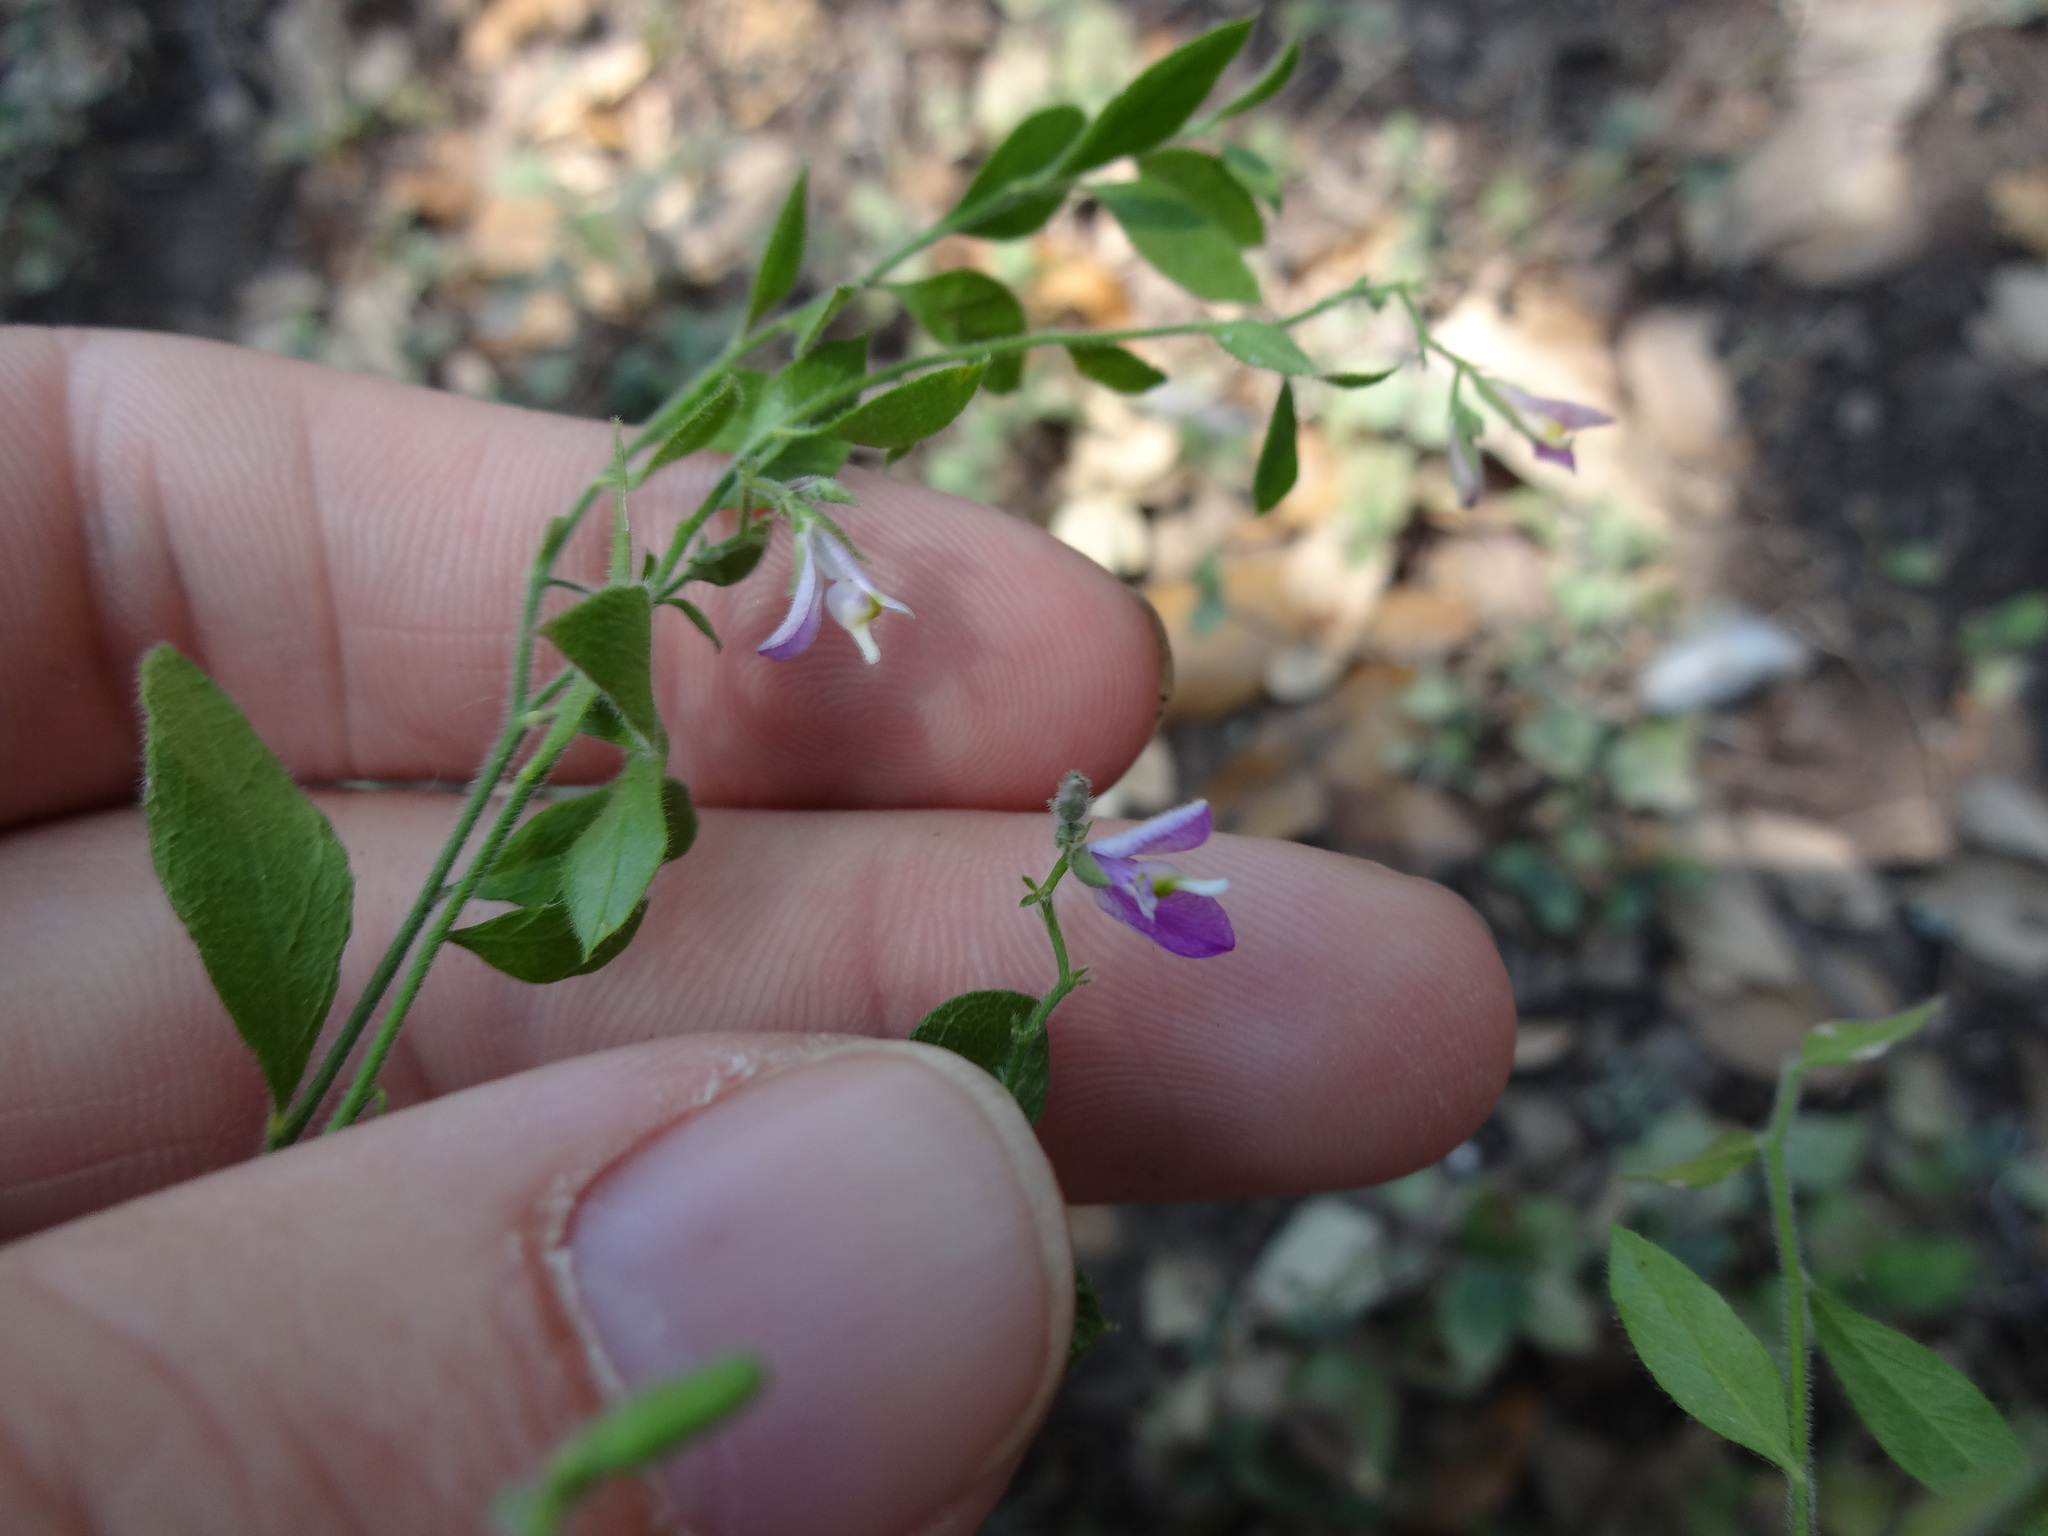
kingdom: Plantae
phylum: Tracheophyta
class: Magnoliopsida
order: Fabales
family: Polygalaceae
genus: Rhinotropis
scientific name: Rhinotropis lindheimeri
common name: Shrubby milkwort
